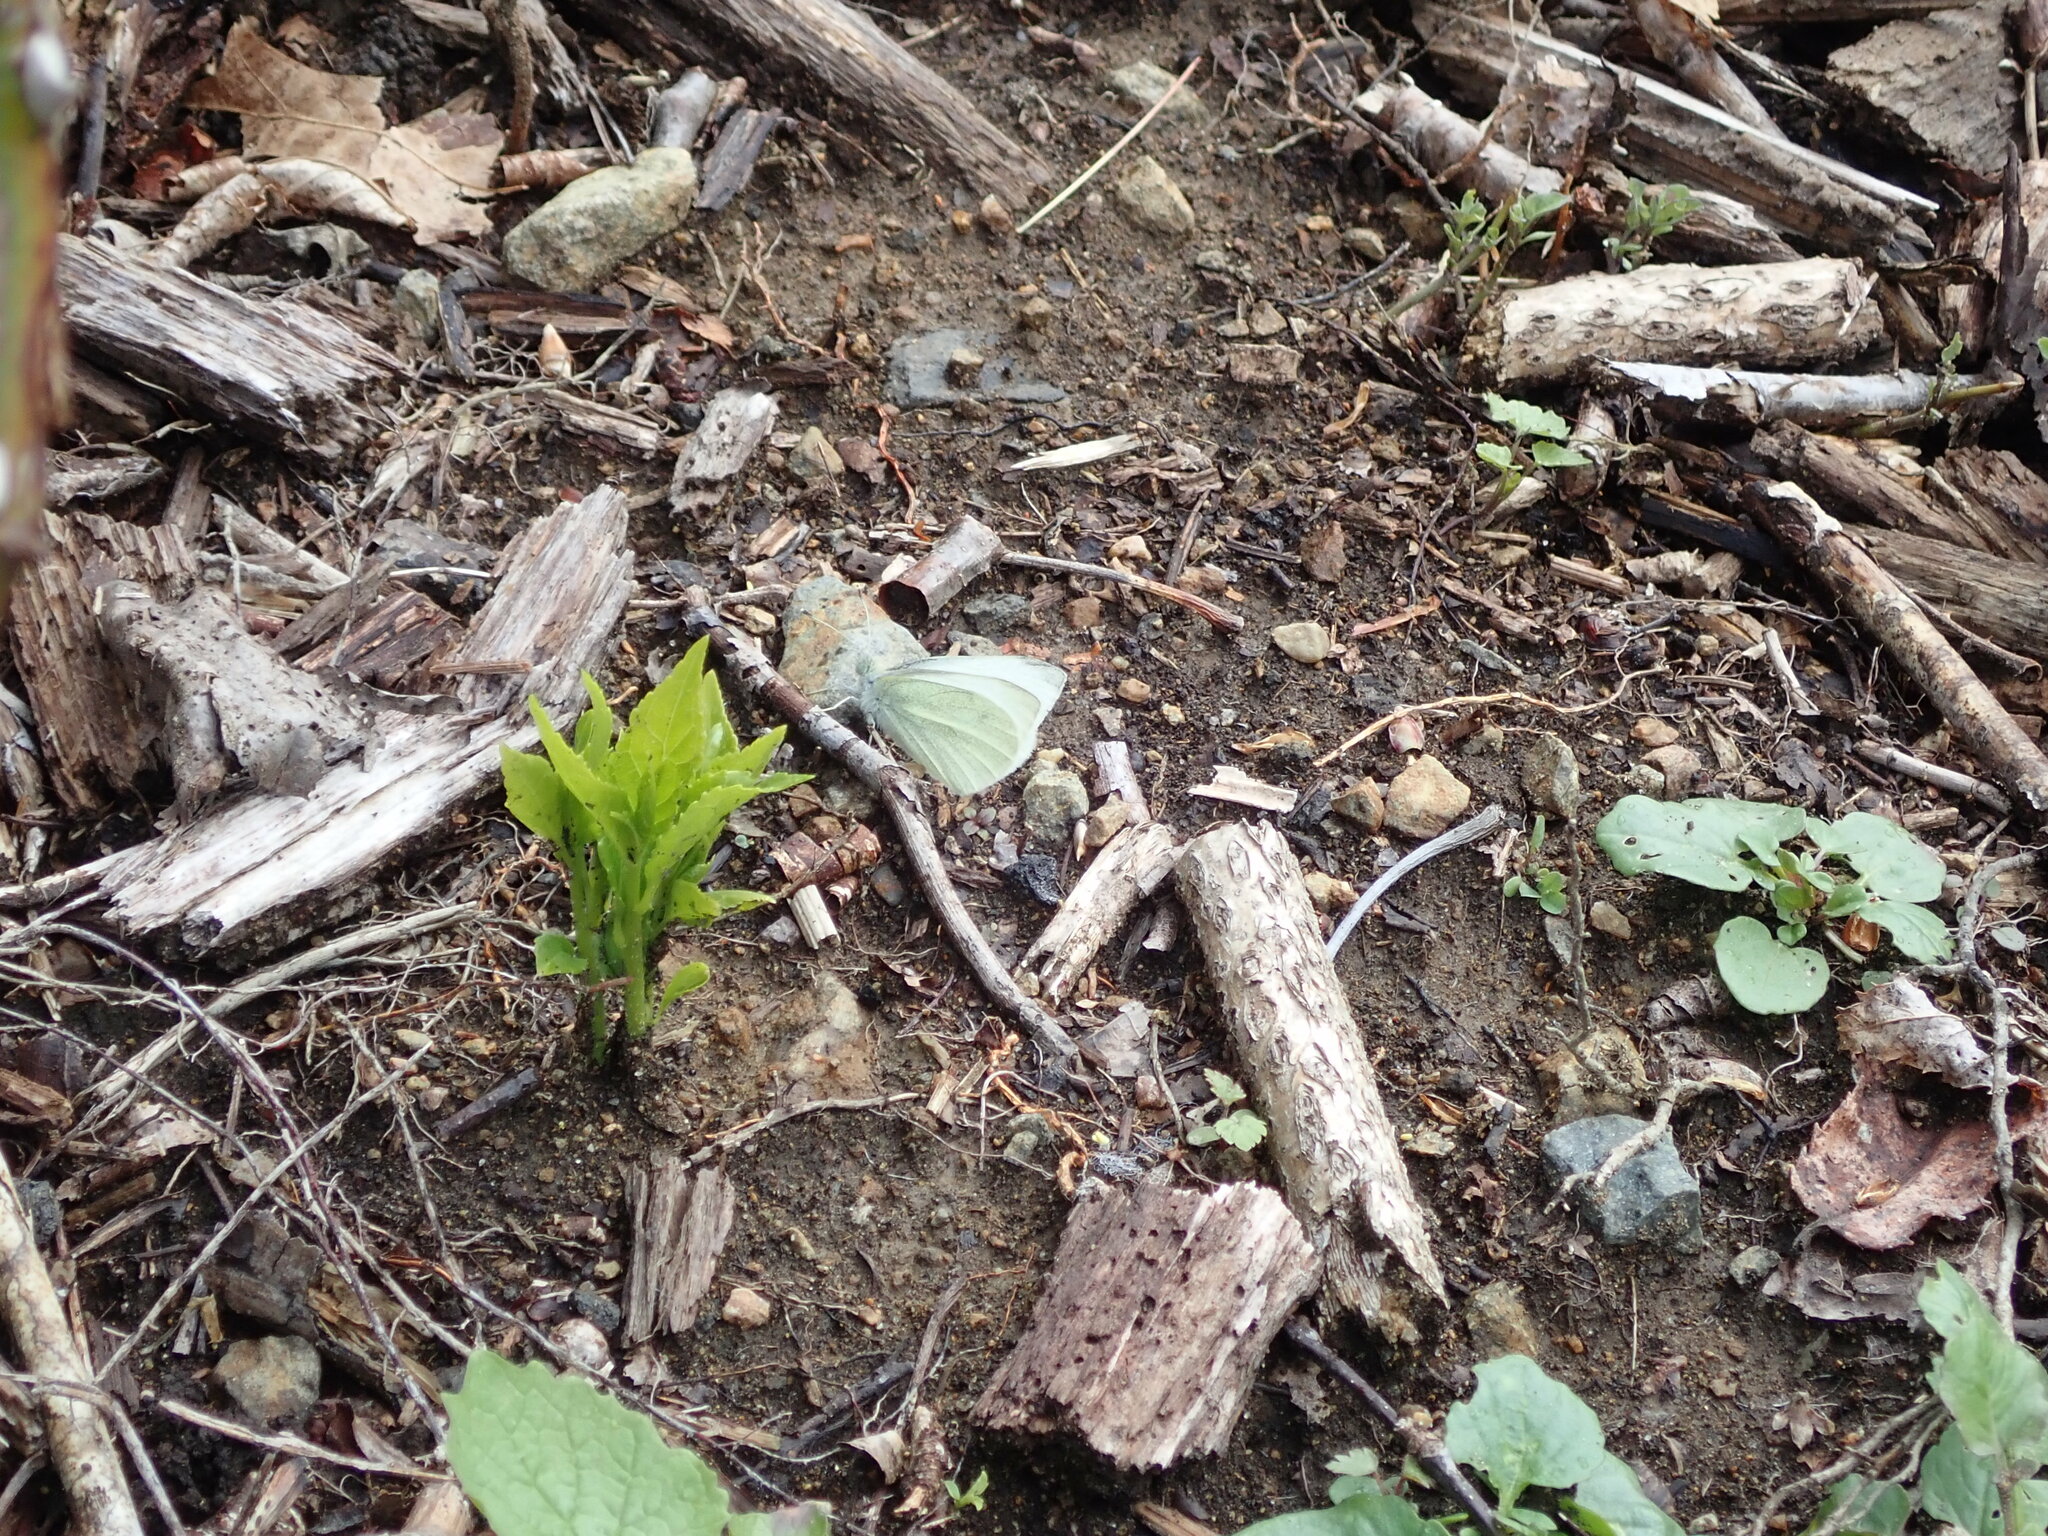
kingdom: Animalia
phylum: Arthropoda
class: Insecta
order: Lepidoptera
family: Pieridae
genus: Pieris
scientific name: Pieris rapae
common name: Small white
